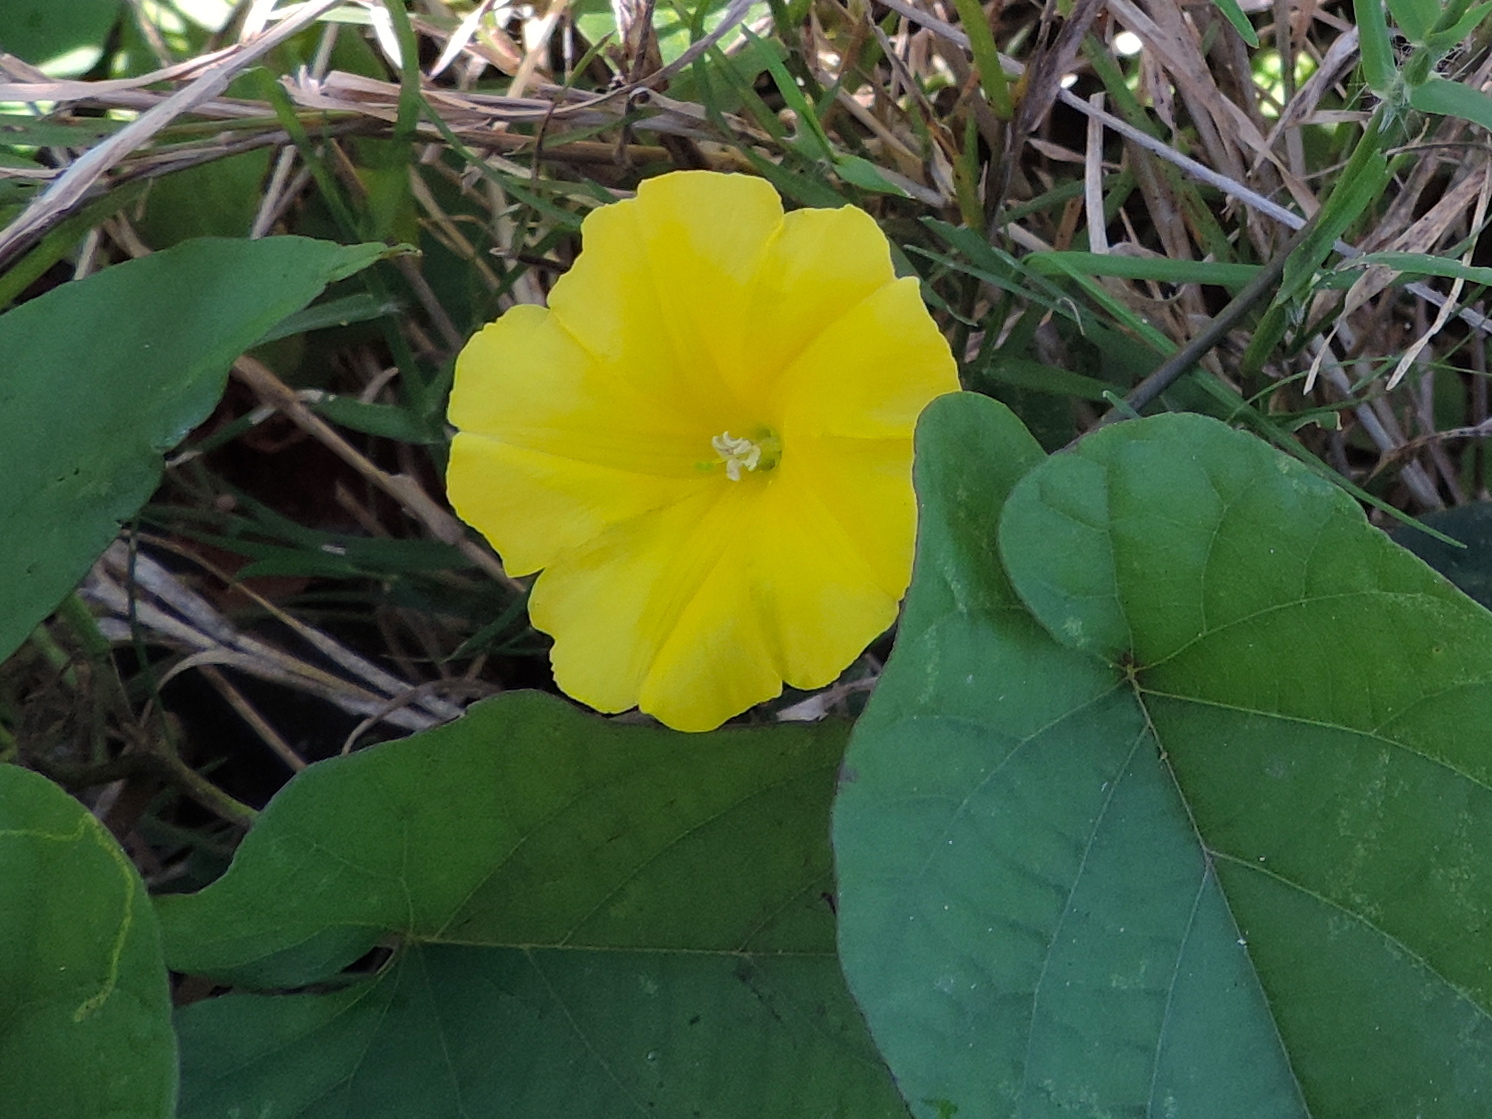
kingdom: Plantae
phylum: Tracheophyta
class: Magnoliopsida
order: Solanales
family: Convolvulaceae
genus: Camonea
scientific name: Camonea umbellata
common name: Hogvine
